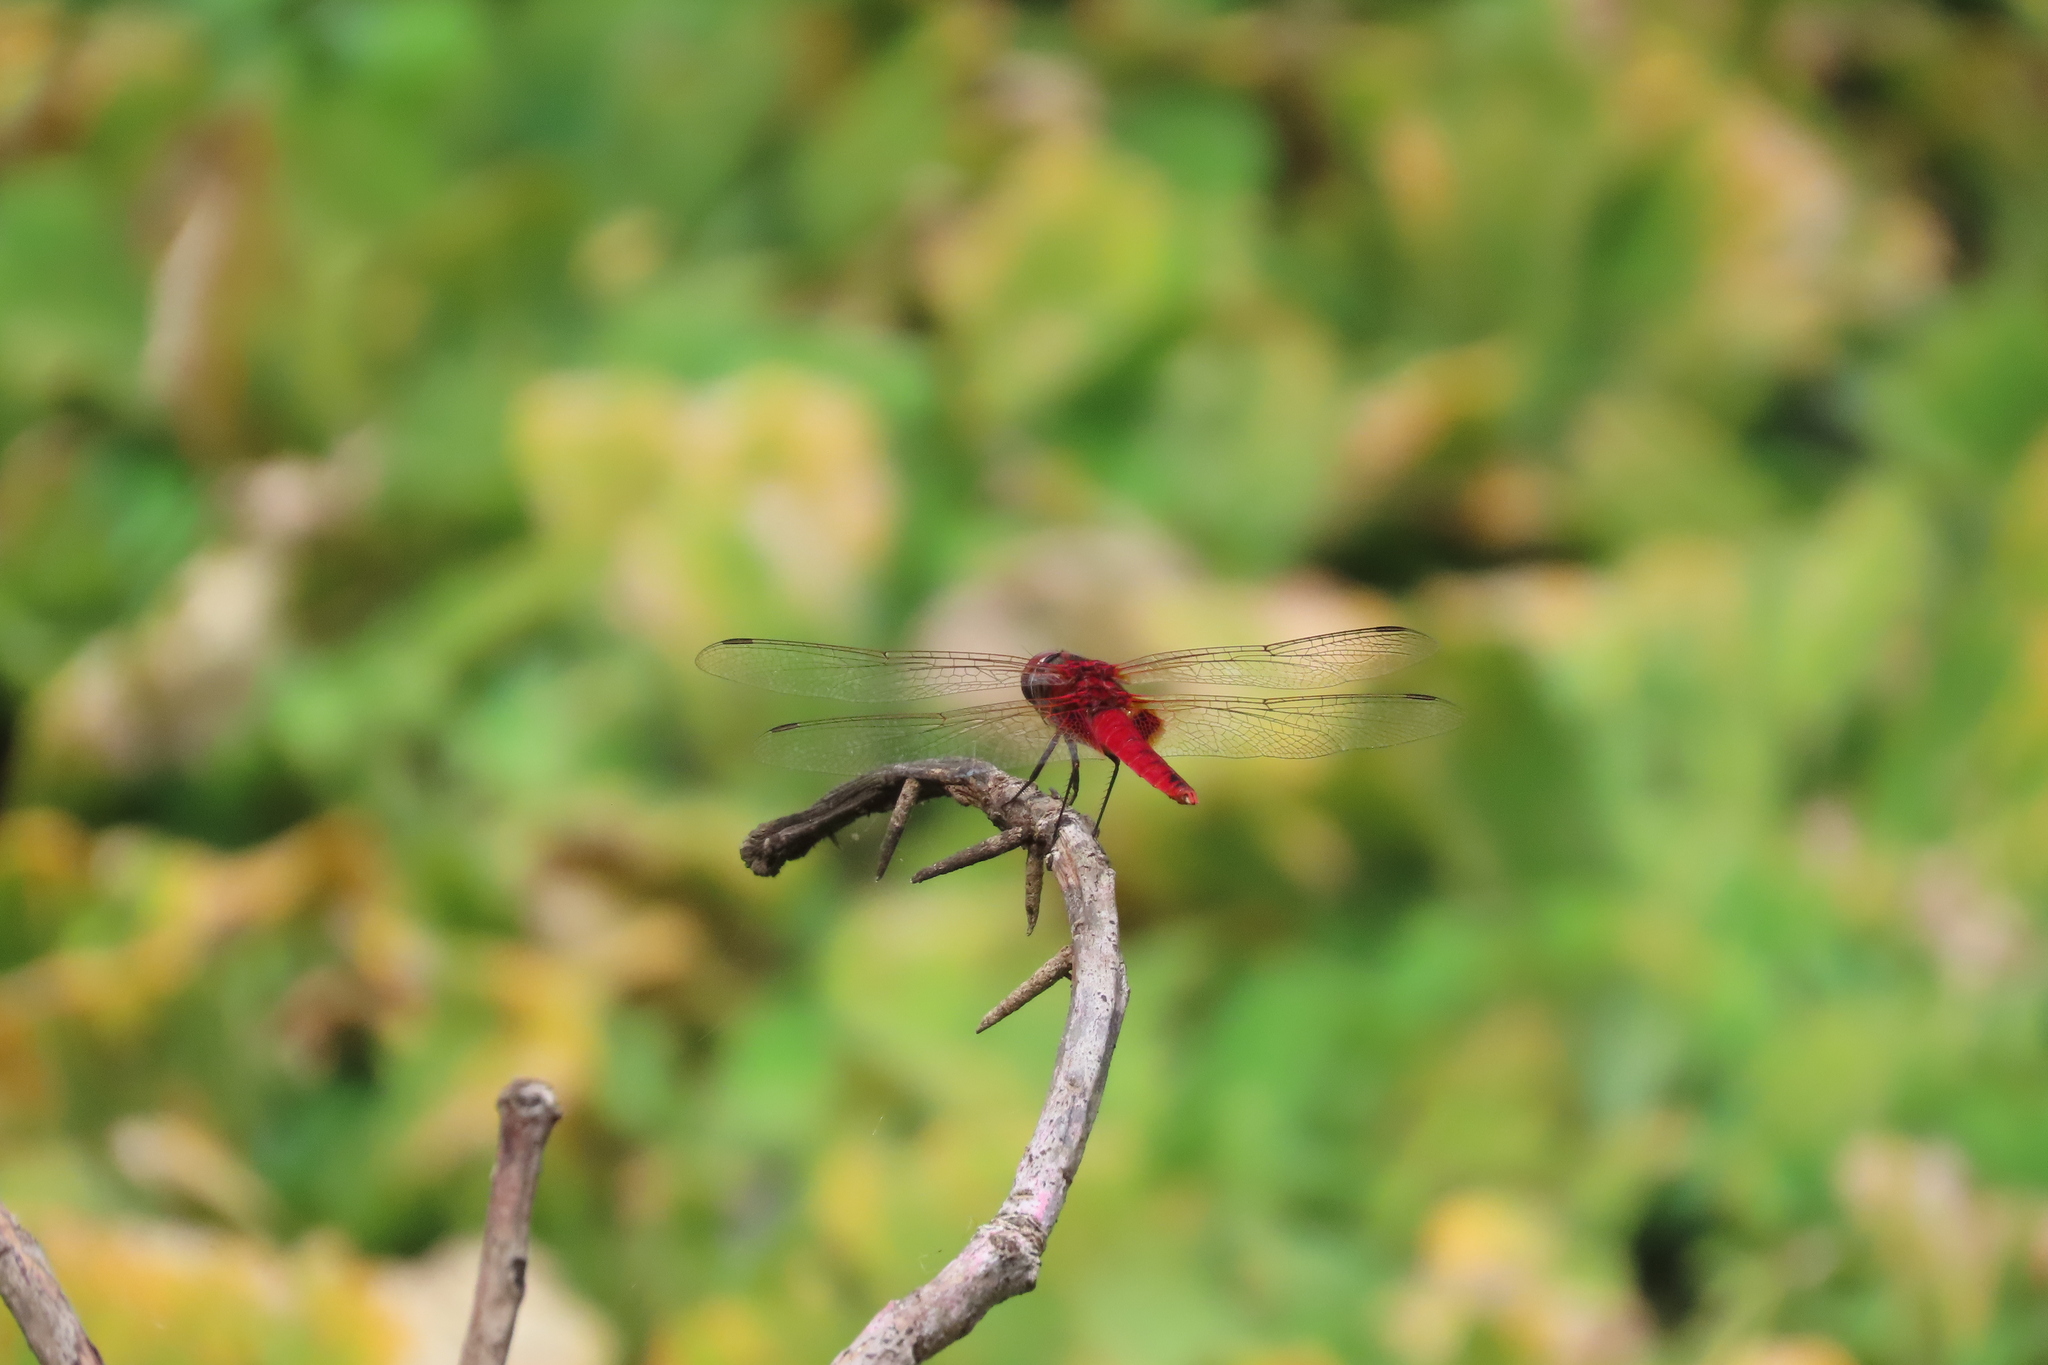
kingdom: Animalia
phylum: Arthropoda
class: Insecta
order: Odonata
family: Libellulidae
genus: Urothemis
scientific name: Urothemis signata
